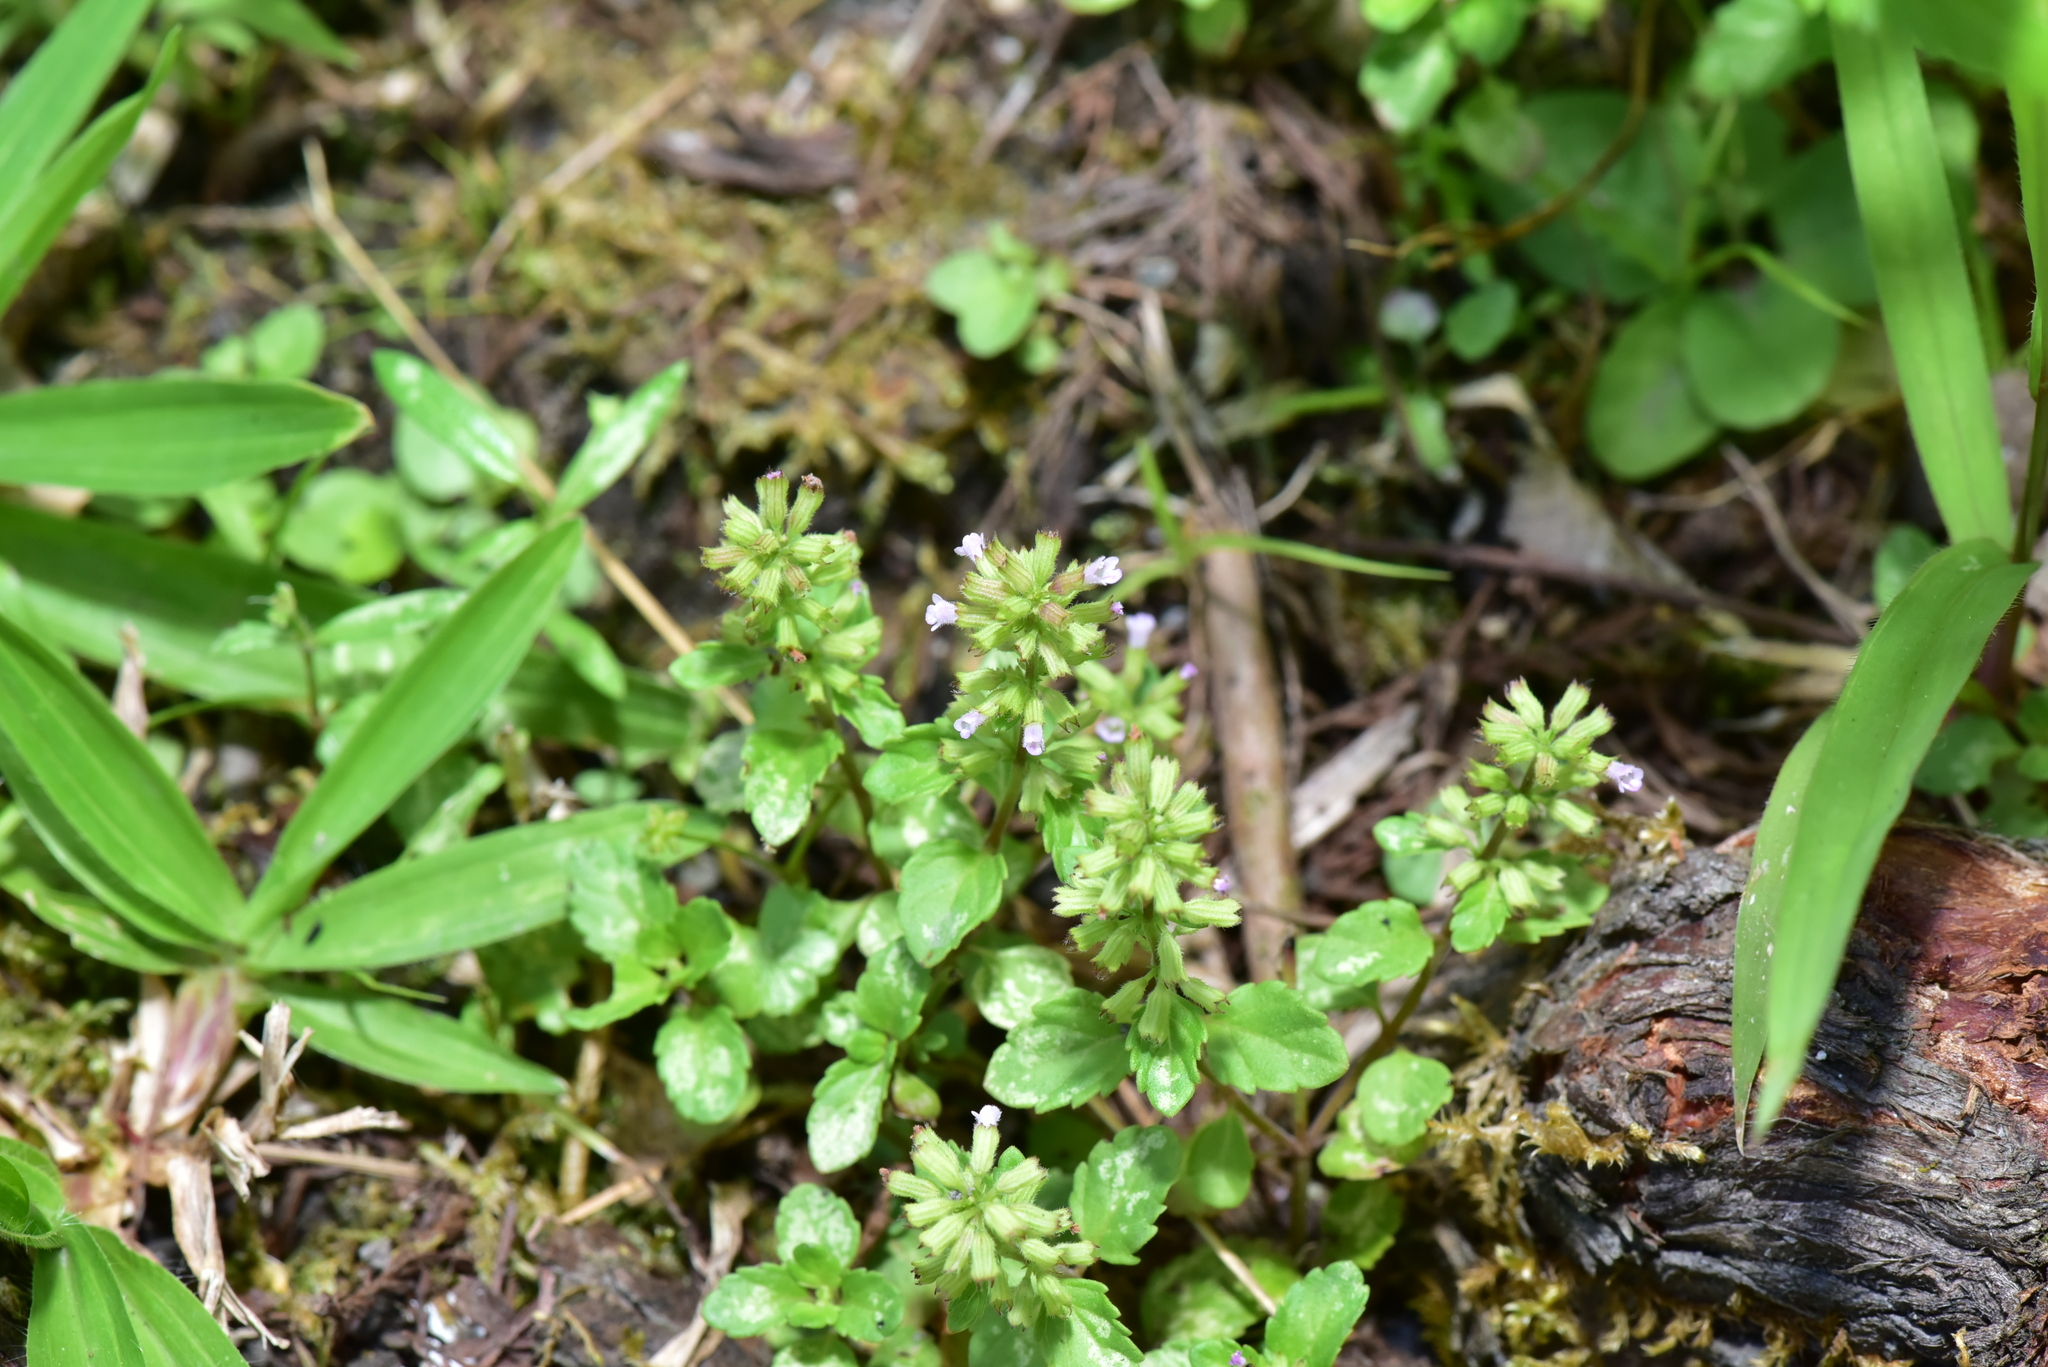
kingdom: Plantae
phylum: Tracheophyta
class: Magnoliopsida
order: Lamiales
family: Lamiaceae
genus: Clinopodium
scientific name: Clinopodium gracile
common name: Slender wild basil
